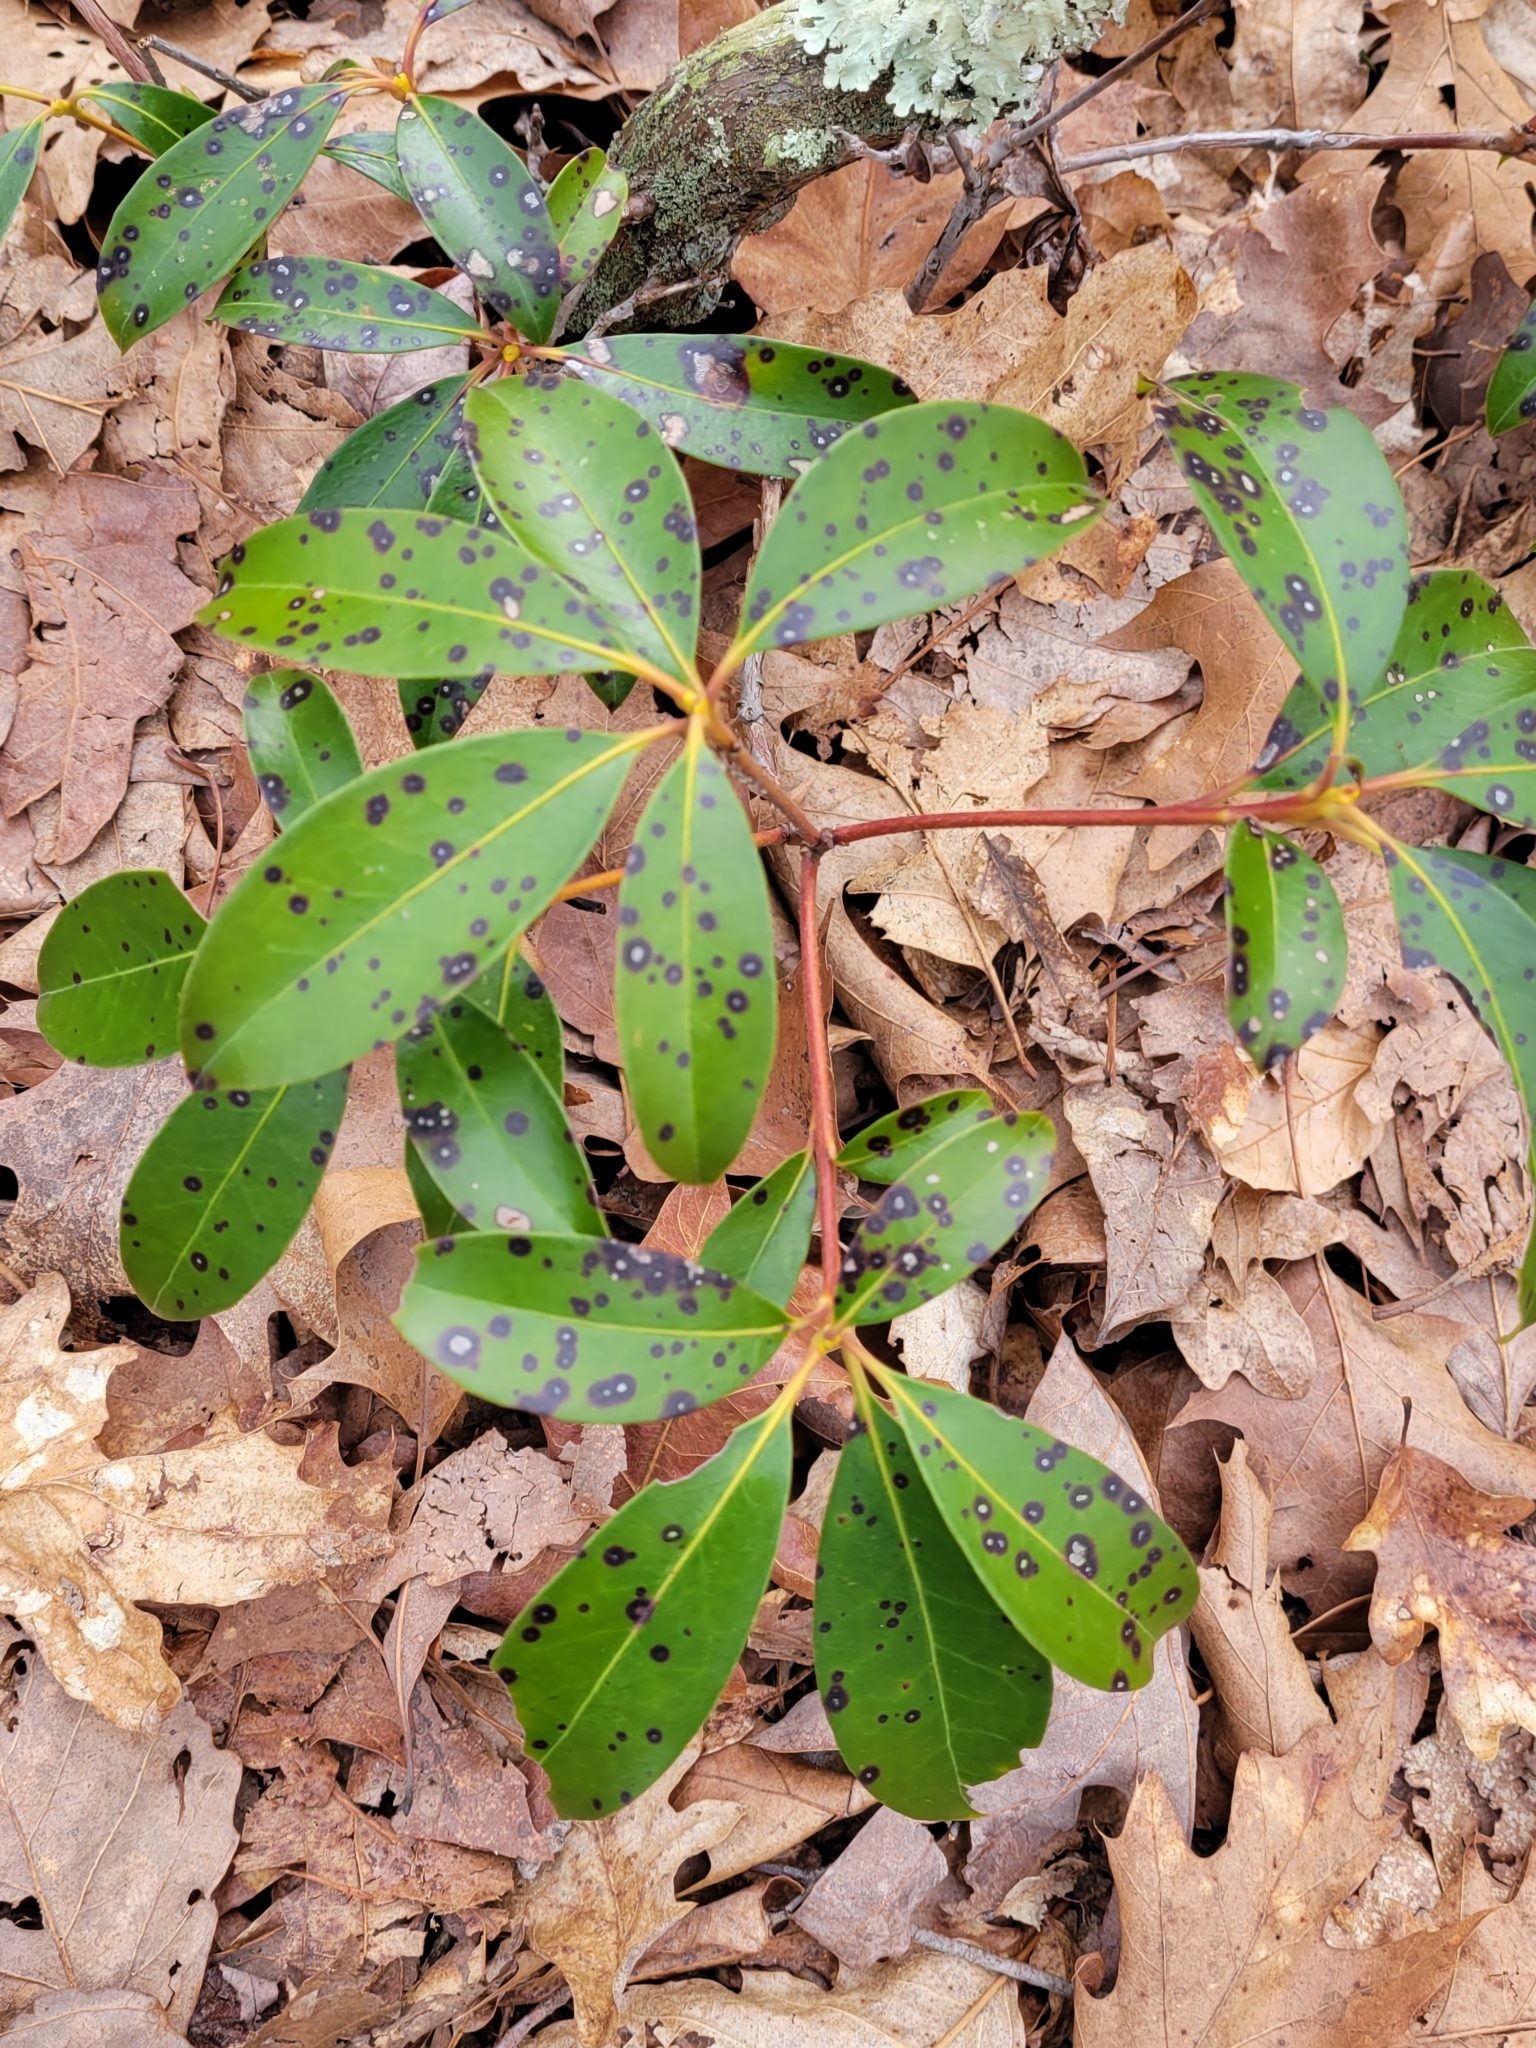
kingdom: Plantae
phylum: Tracheophyta
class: Magnoliopsida
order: Ericales
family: Ericaceae
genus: Kalmia
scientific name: Kalmia latifolia
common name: Mountain-laurel
